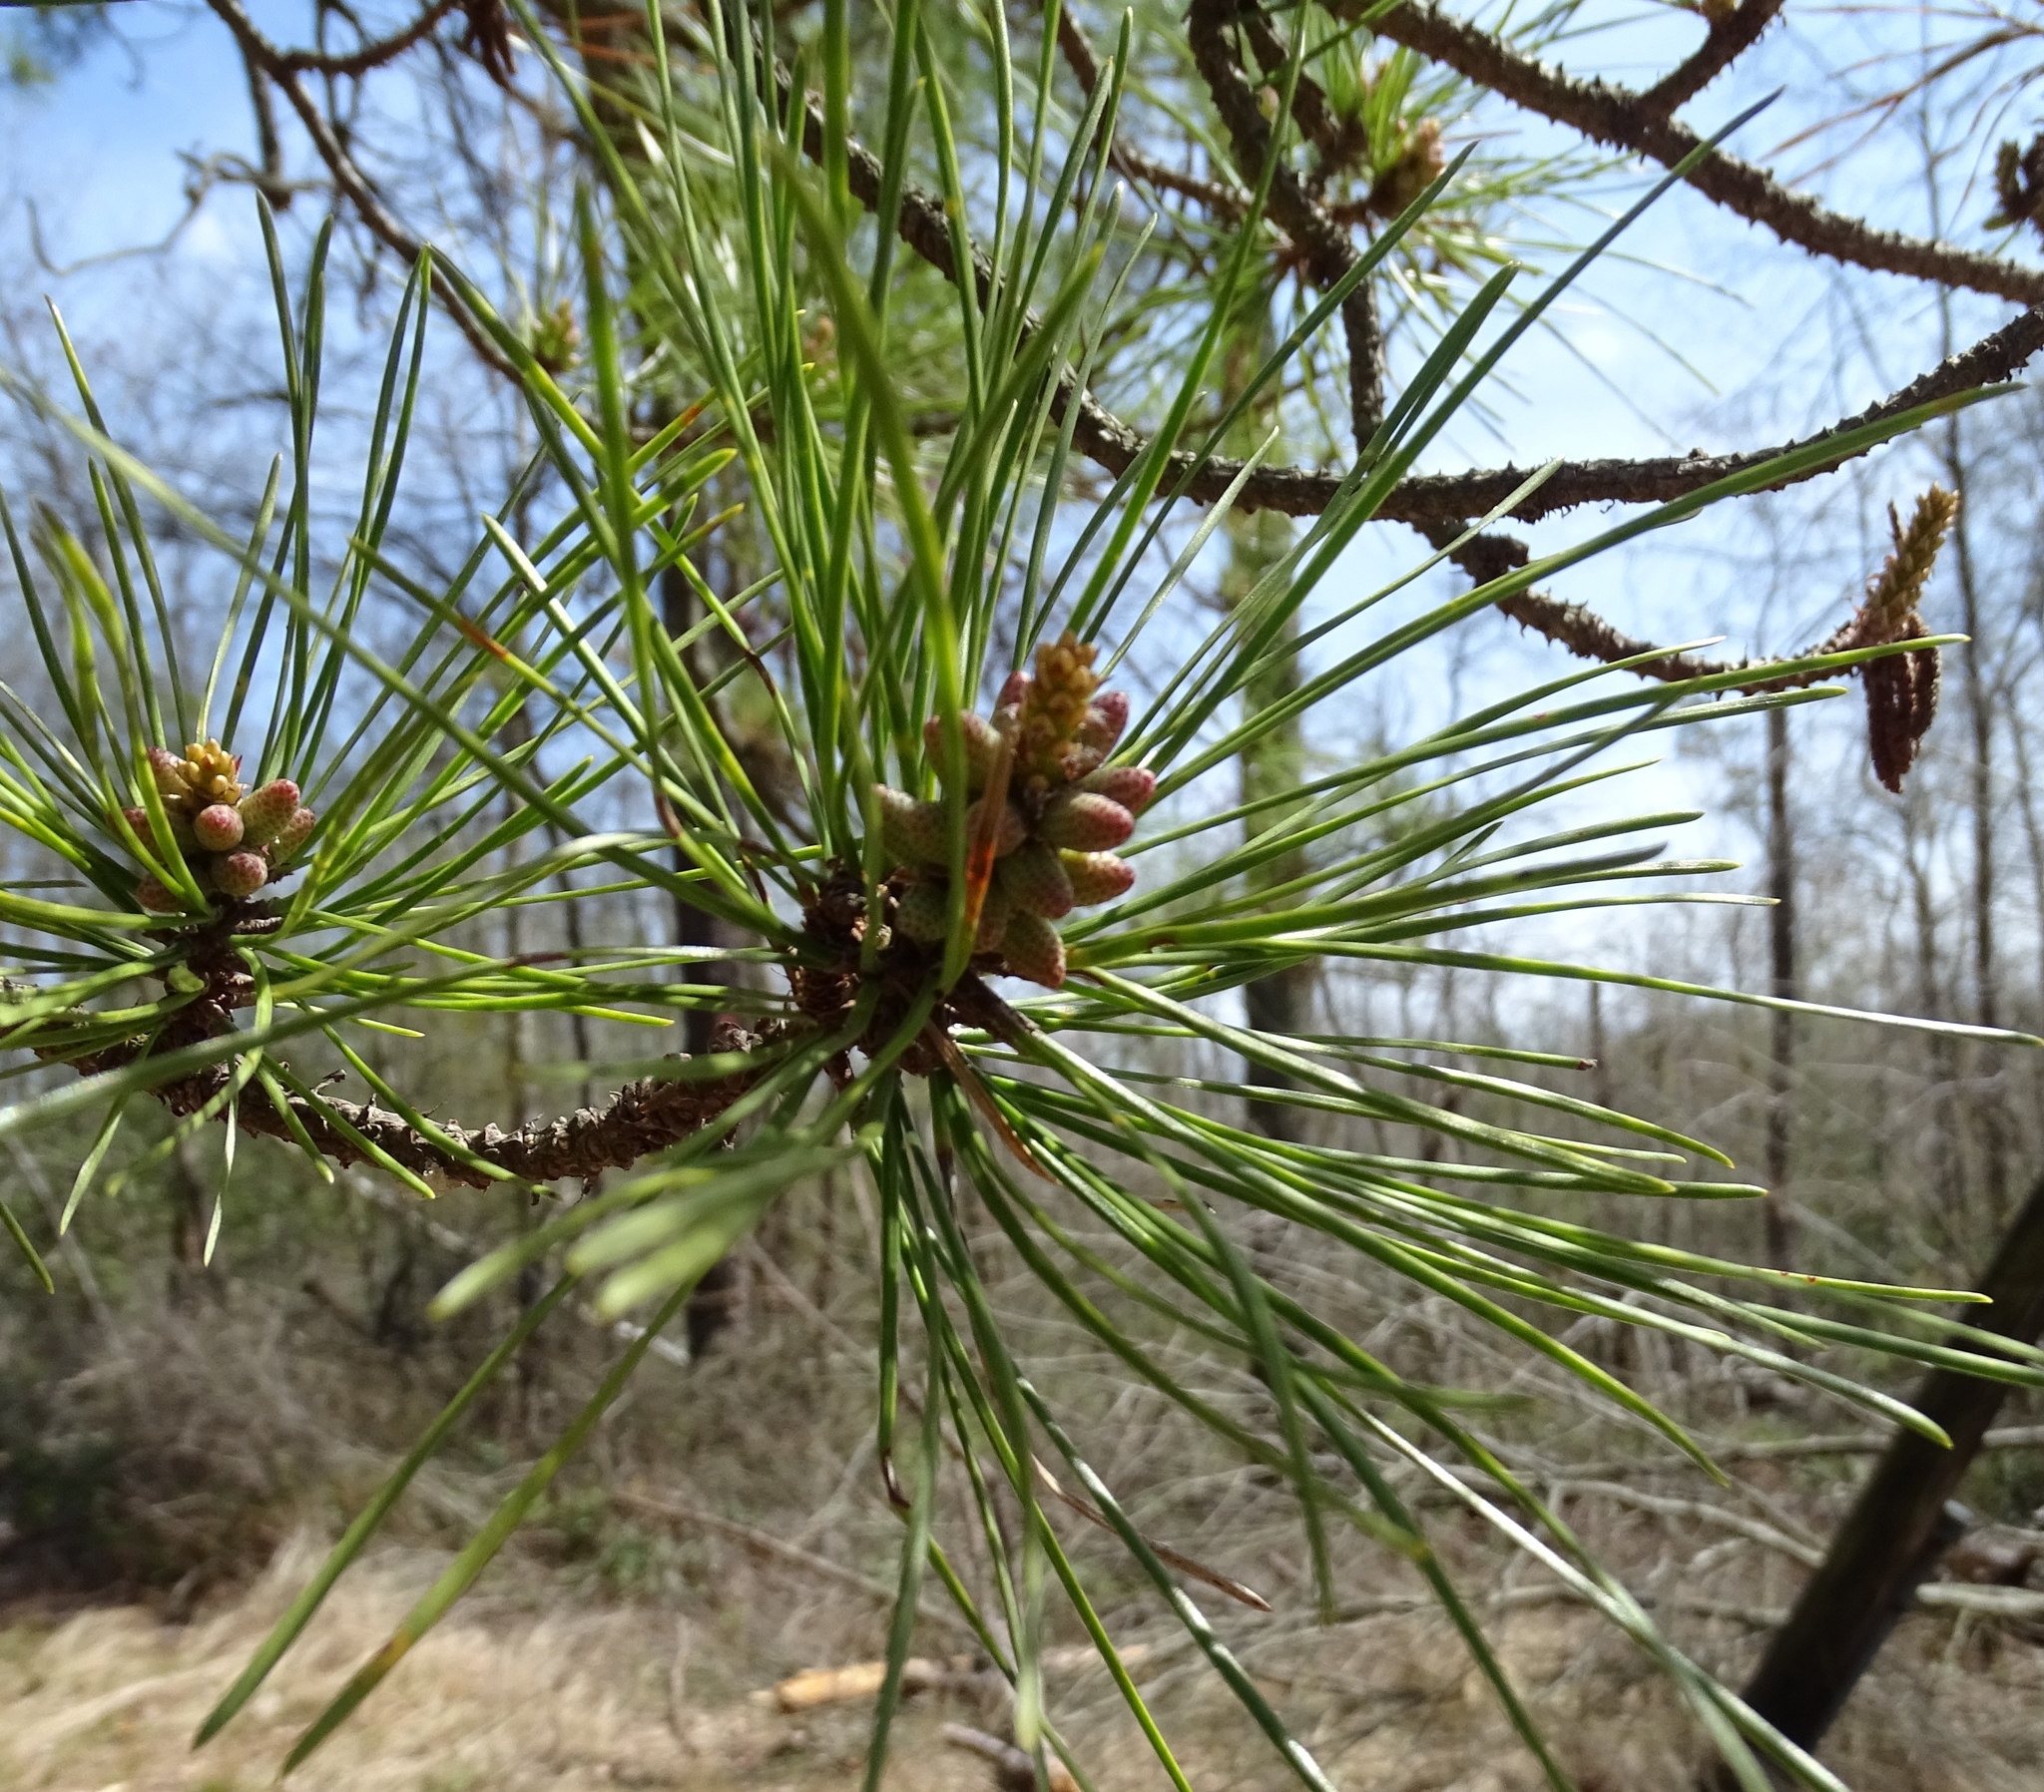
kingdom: Plantae
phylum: Tracheophyta
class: Pinopsida
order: Pinales
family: Pinaceae
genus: Pinus
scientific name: Pinus rigida
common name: Pitch pine
